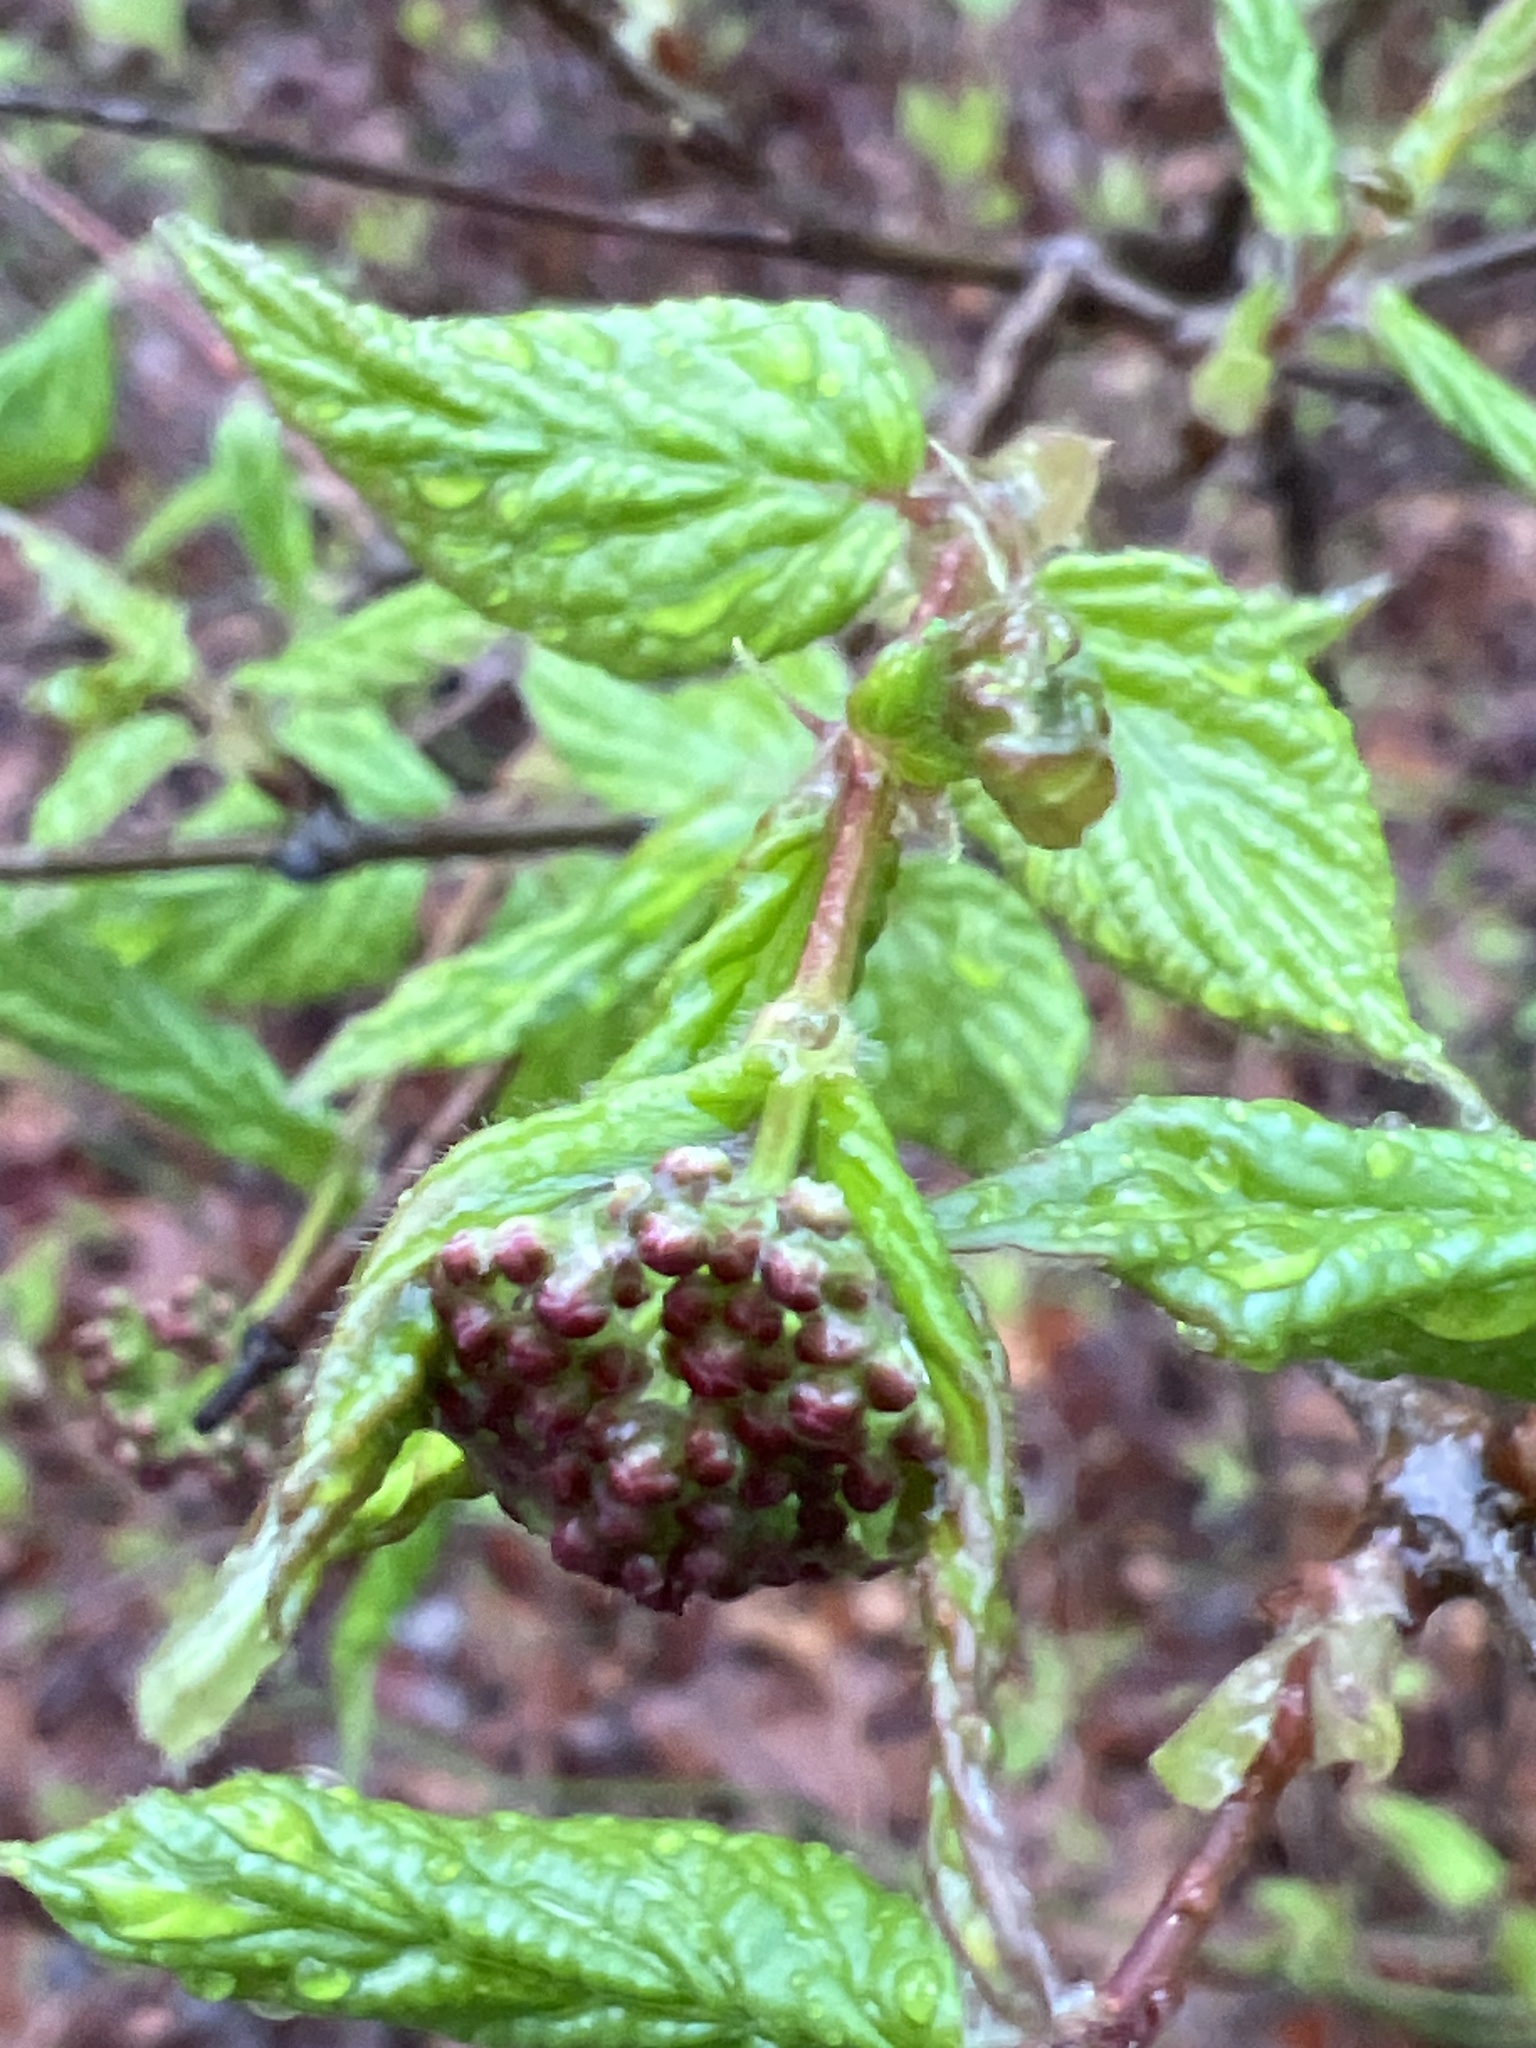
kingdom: Plantae
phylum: Tracheophyta
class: Magnoliopsida
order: Dipsacales
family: Viburnaceae
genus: Viburnum
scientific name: Viburnum rafinesqueanum
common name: Downy arrow-wood
